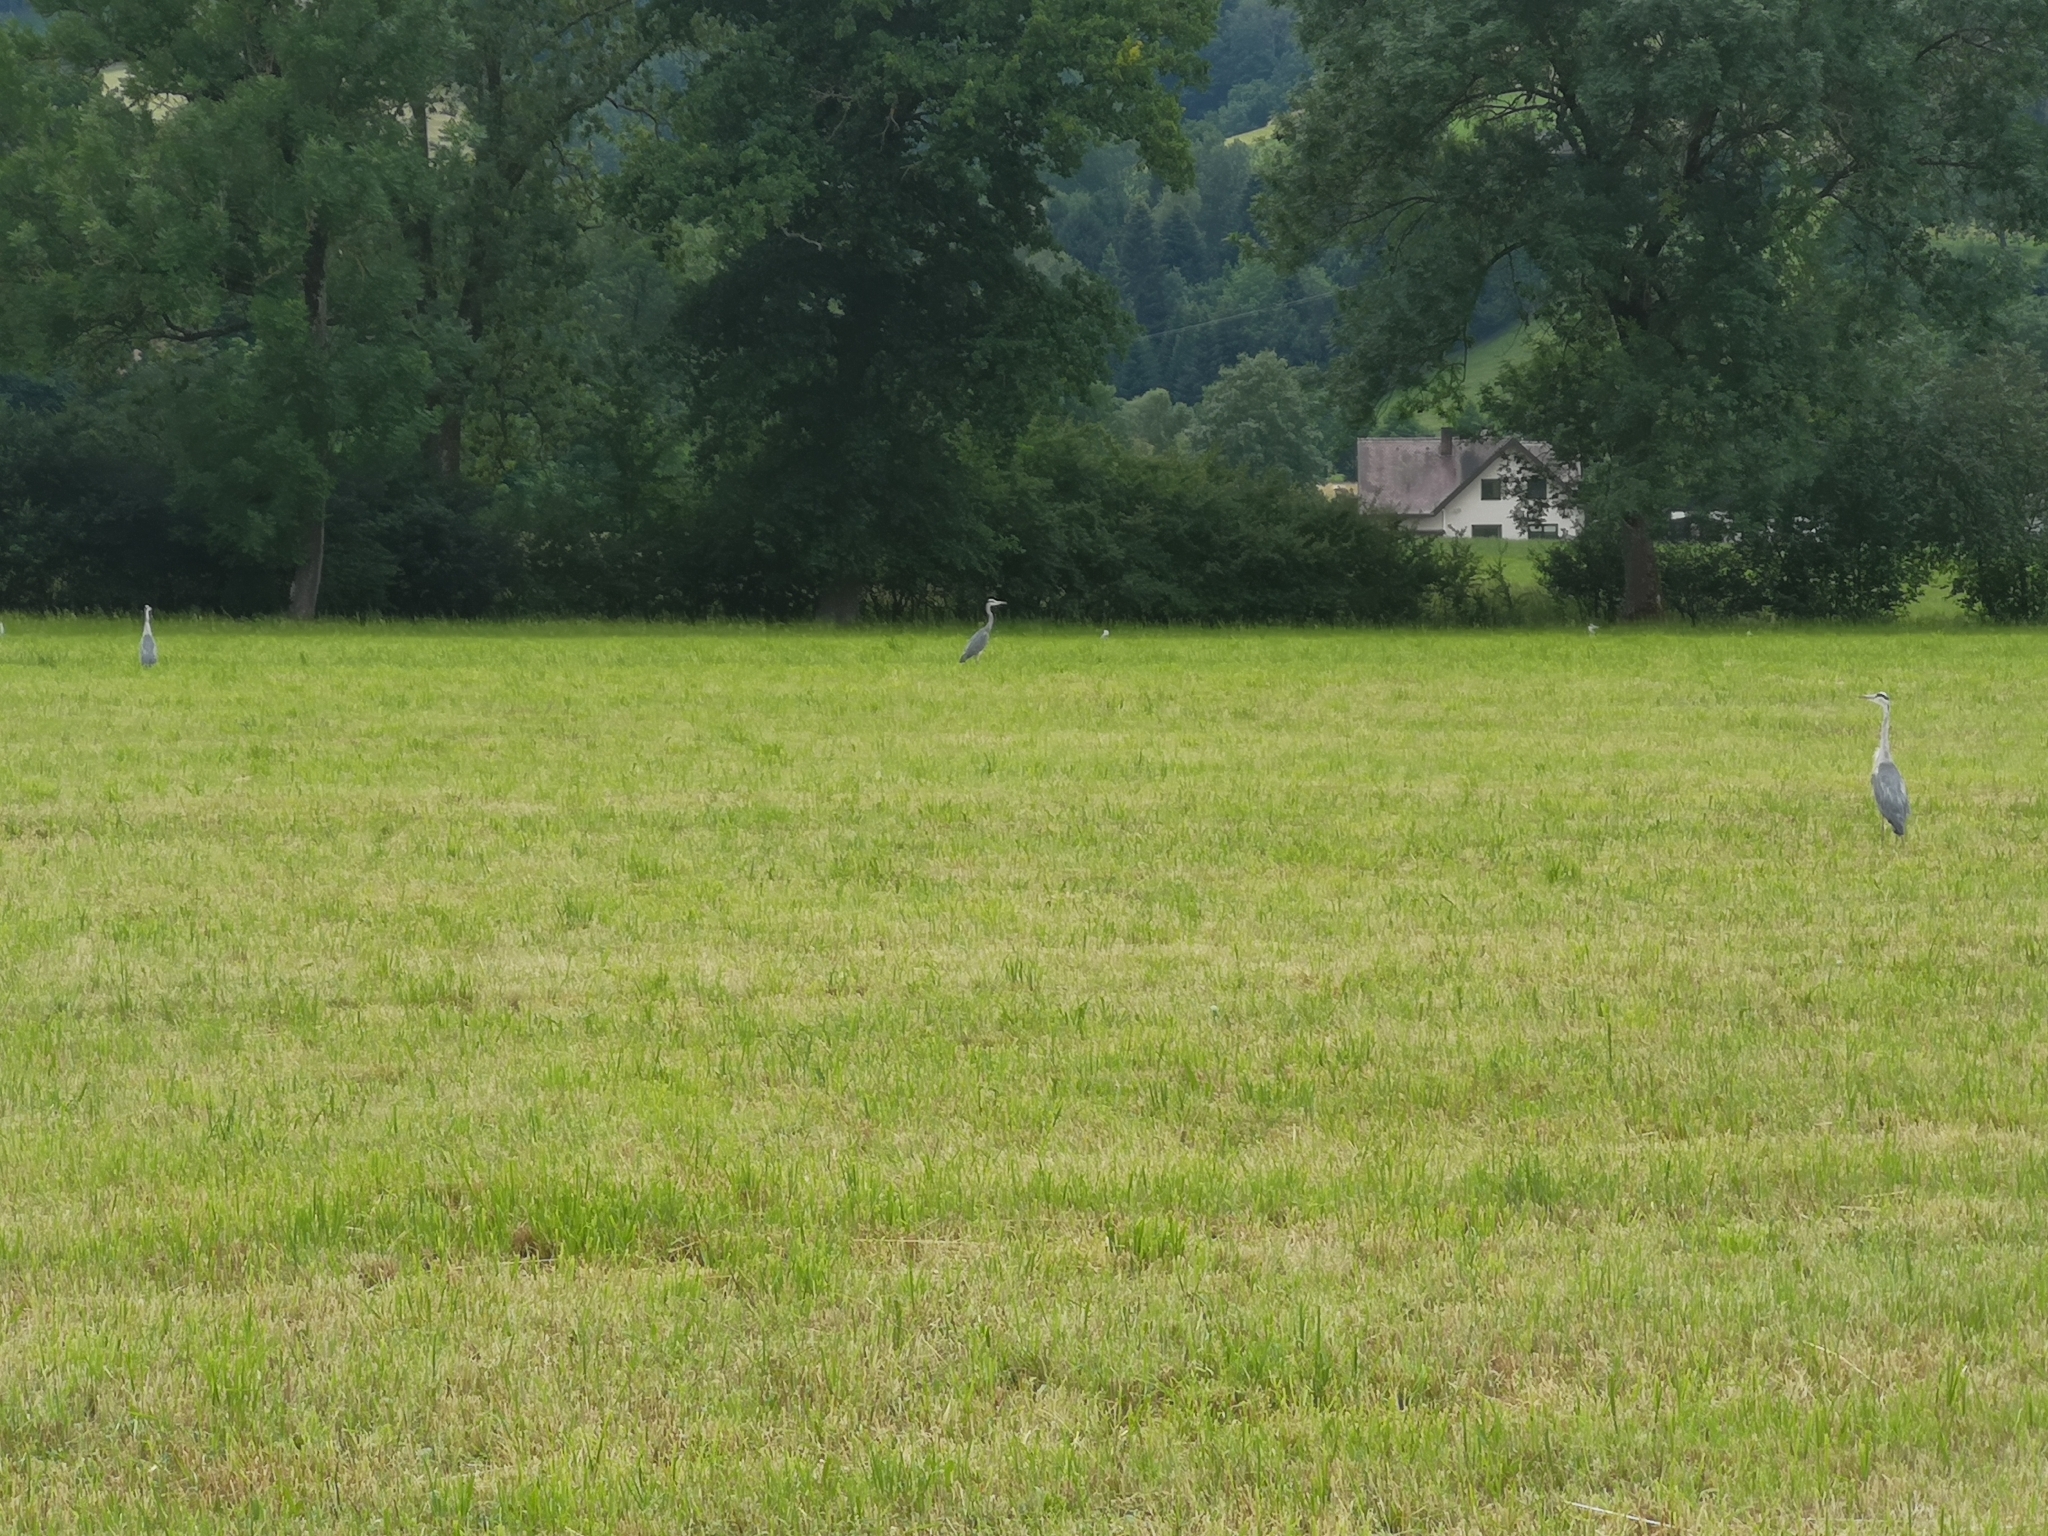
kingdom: Animalia
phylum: Chordata
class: Aves
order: Pelecaniformes
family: Ardeidae
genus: Ardea
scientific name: Ardea cinerea
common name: Grey heron
